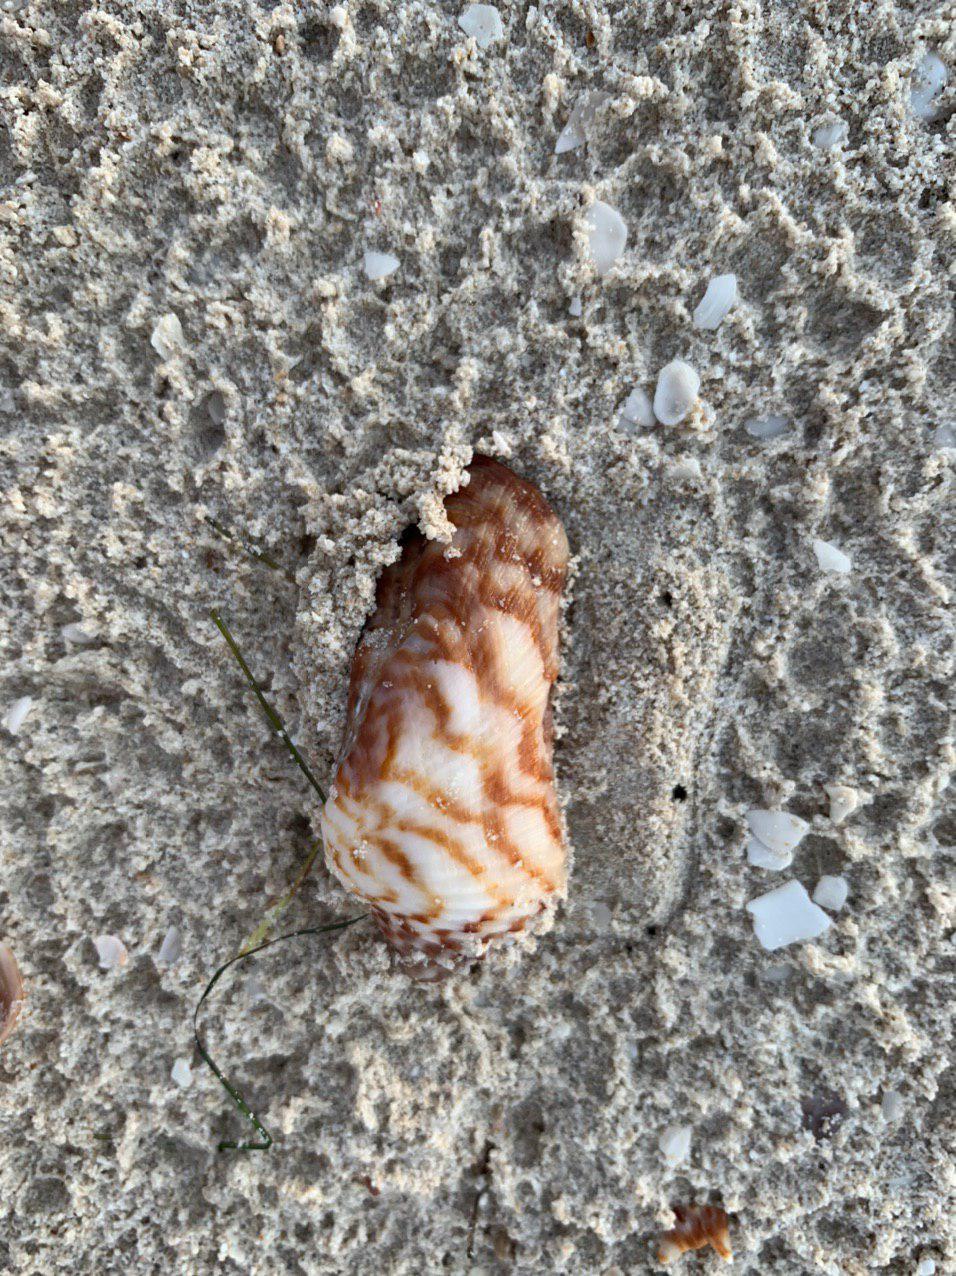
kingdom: Animalia
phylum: Mollusca
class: Bivalvia
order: Arcida
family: Arcidae
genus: Arca
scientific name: Arca zebra
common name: Atlantic turkey wing
